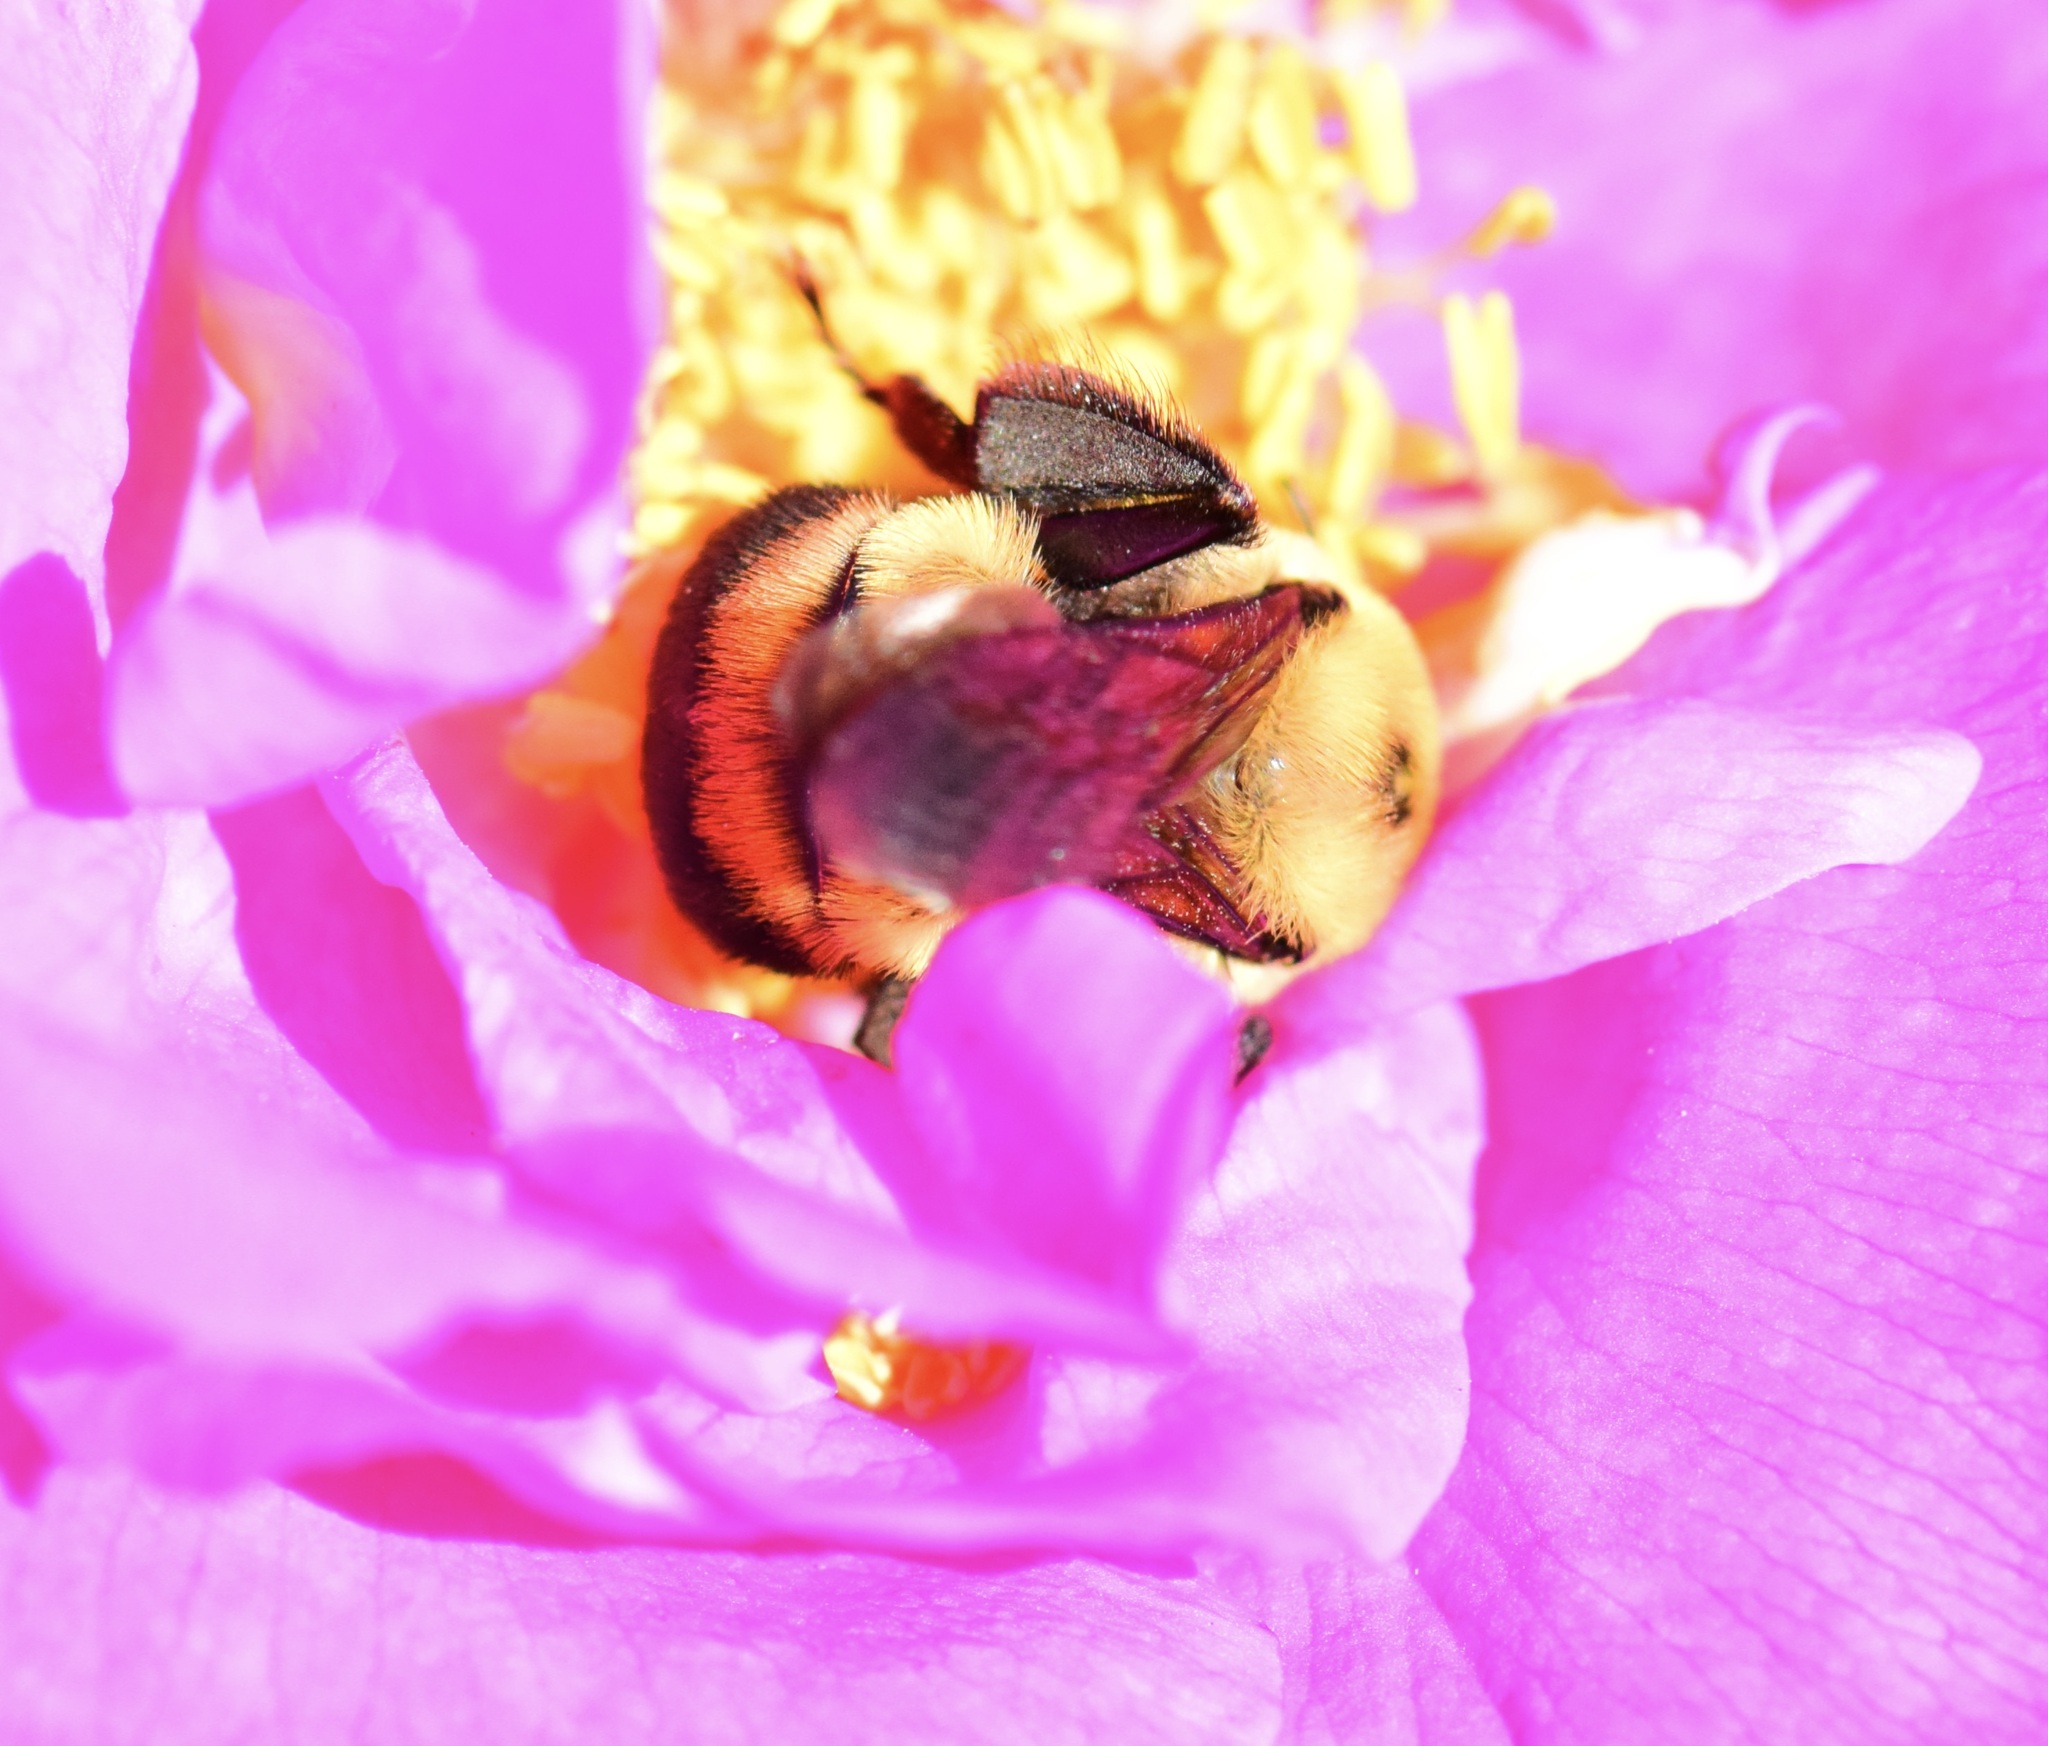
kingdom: Animalia
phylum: Arthropoda
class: Insecta
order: Hymenoptera
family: Apidae
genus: Bombus
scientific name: Bombus griseocollis
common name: Brown-belted bumble bee
